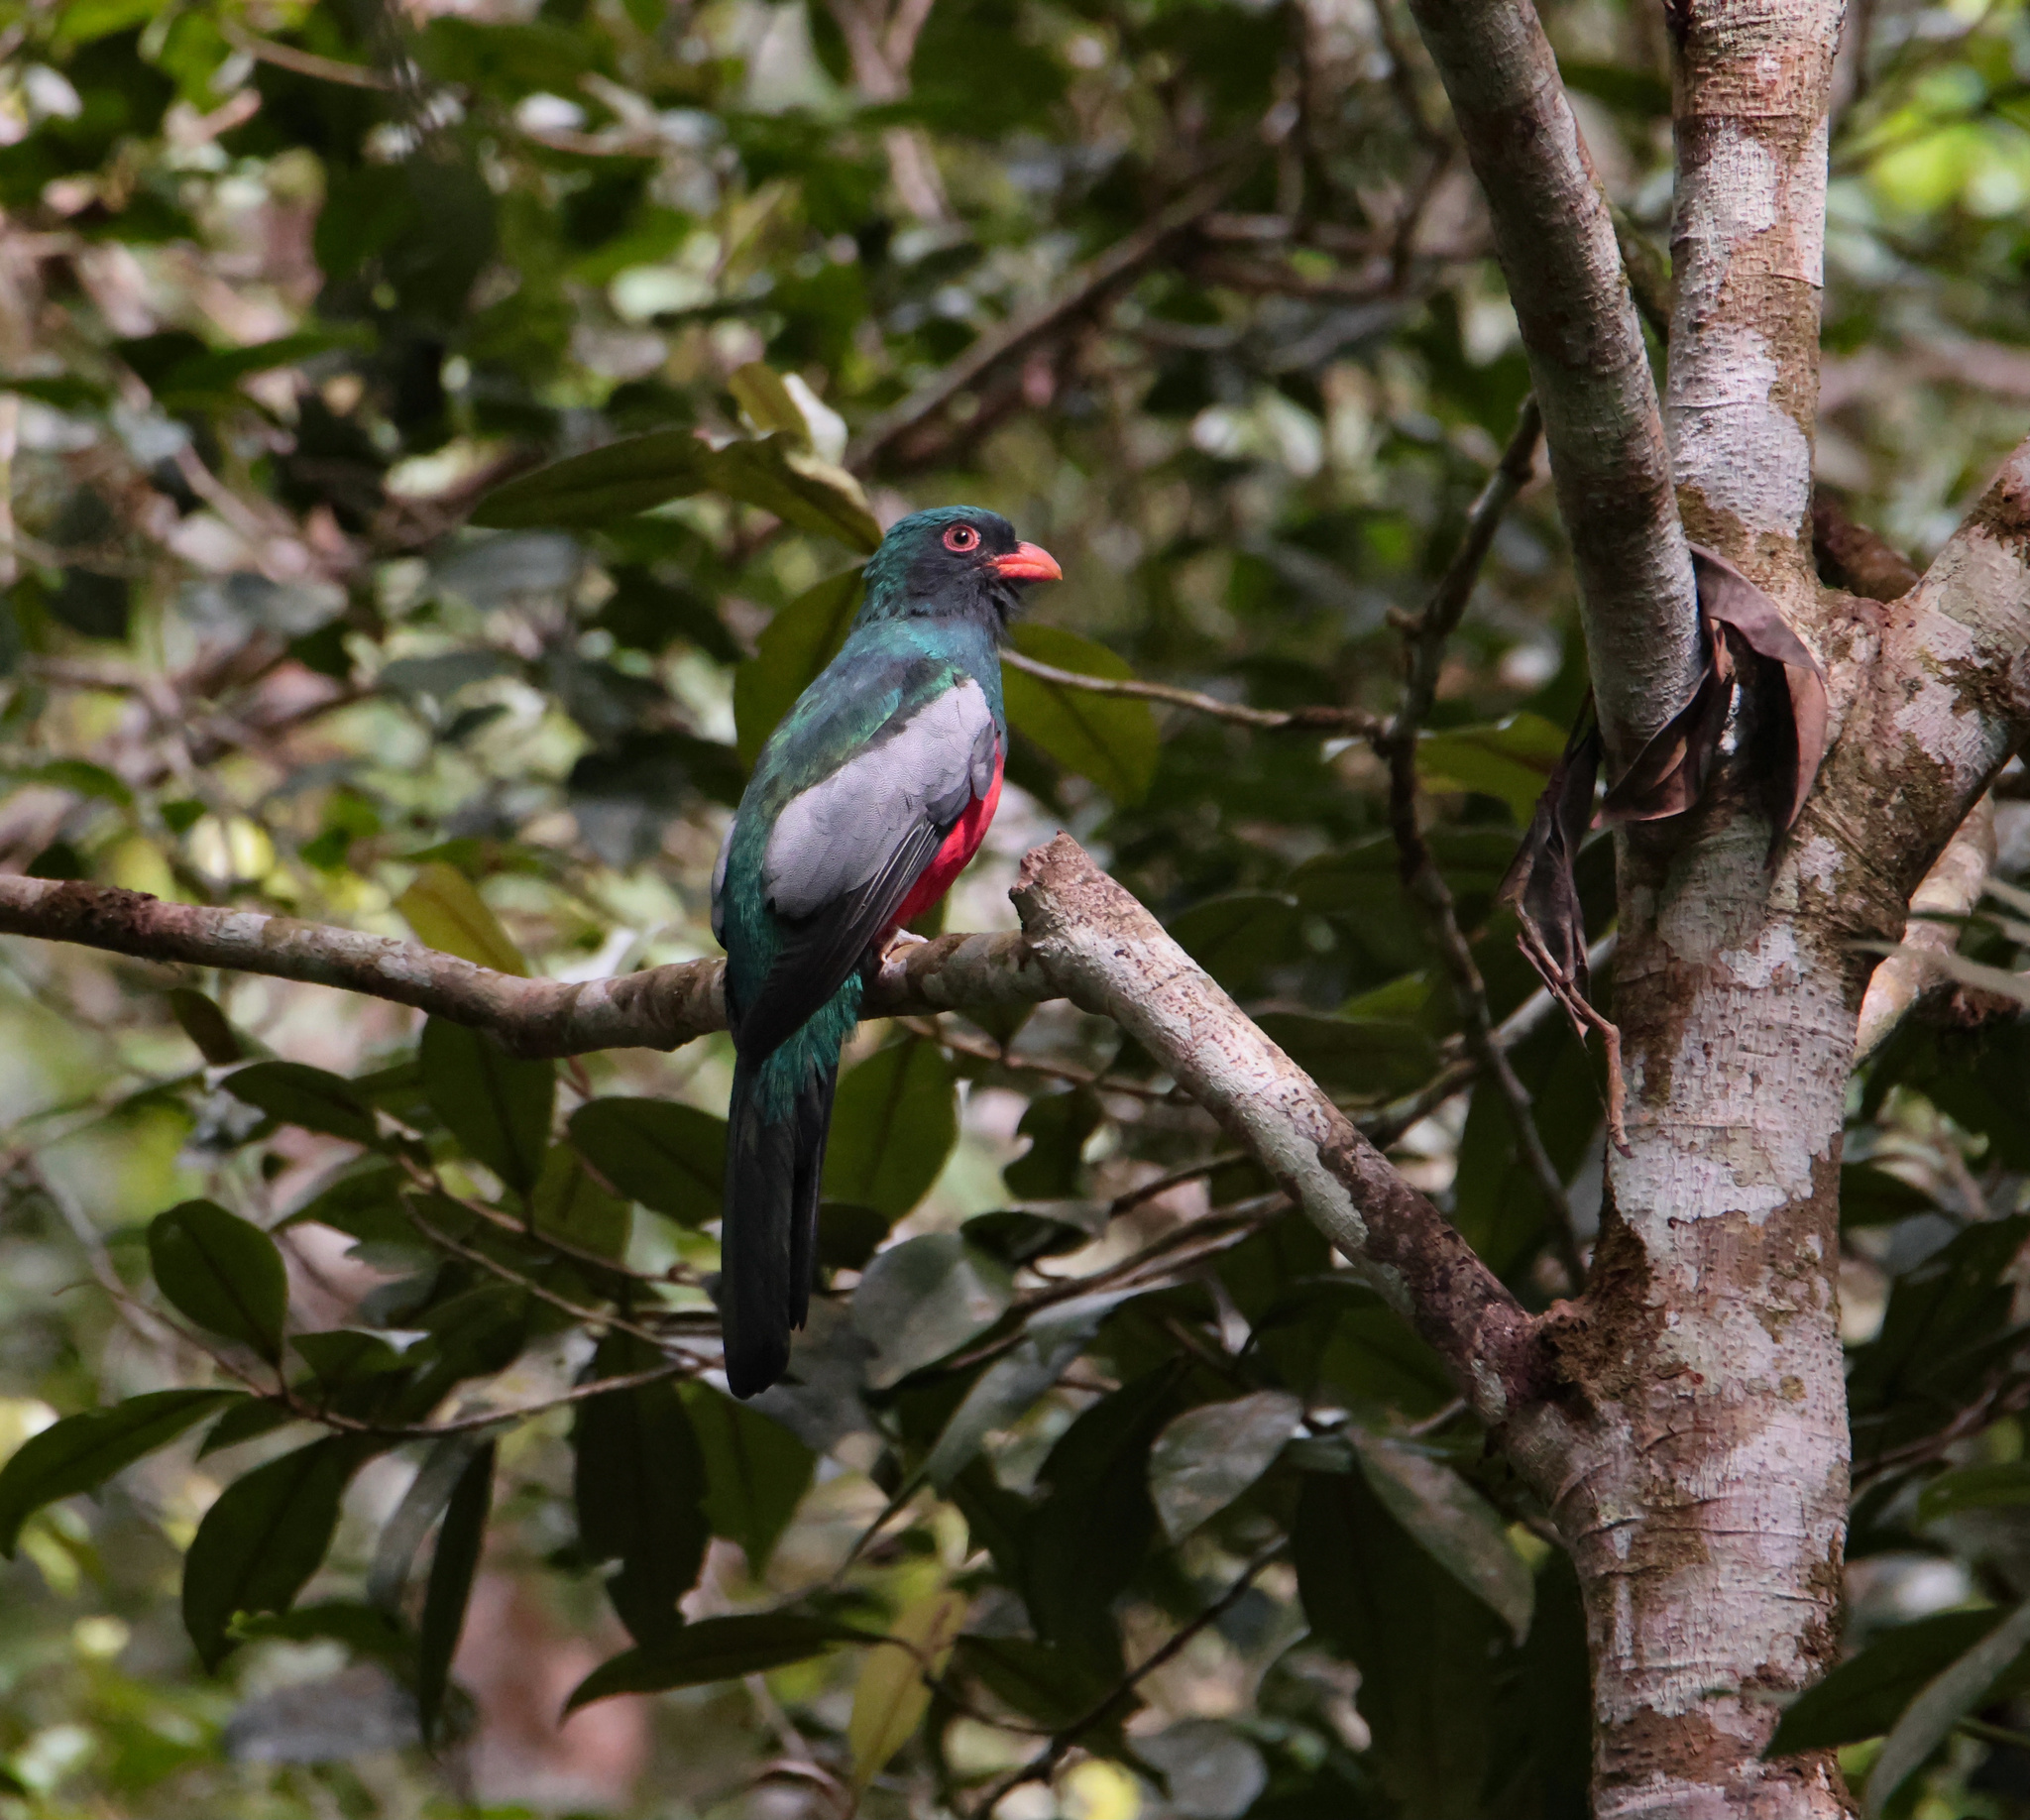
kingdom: Animalia
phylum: Chordata
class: Aves
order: Trogoniformes
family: Trogonidae
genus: Trogon
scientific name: Trogon massena
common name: Slaty-tailed trogon
